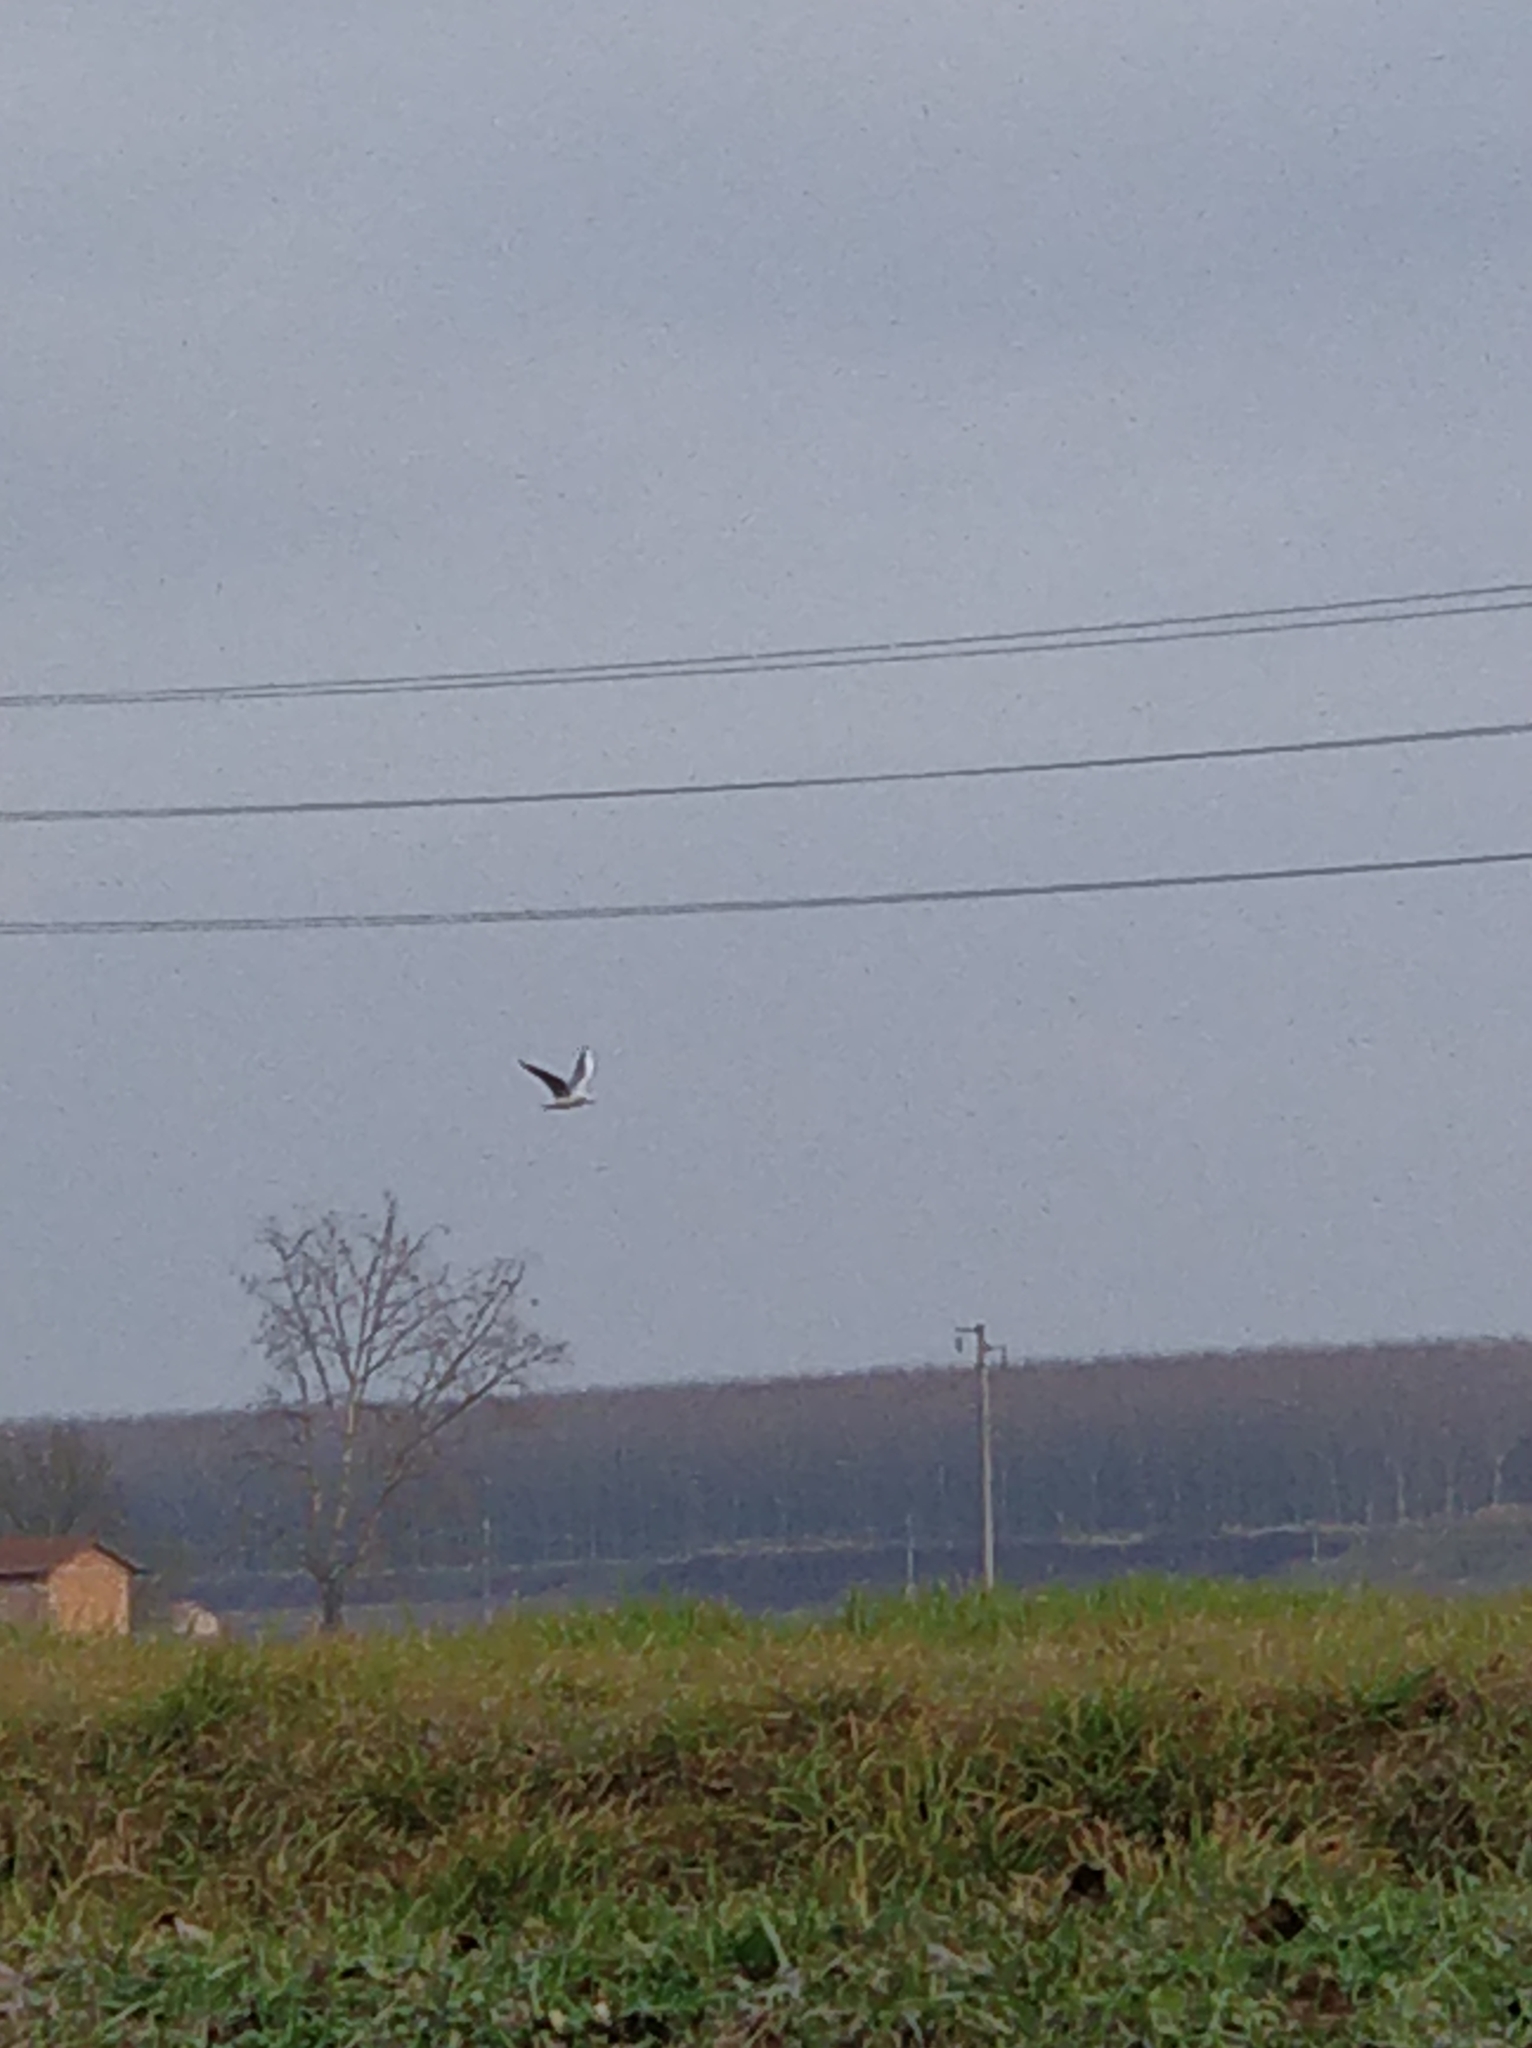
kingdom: Animalia
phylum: Chordata
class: Aves
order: Charadriiformes
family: Laridae
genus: Chroicocephalus
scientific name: Chroicocephalus ridibundus
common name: Black-headed gull
